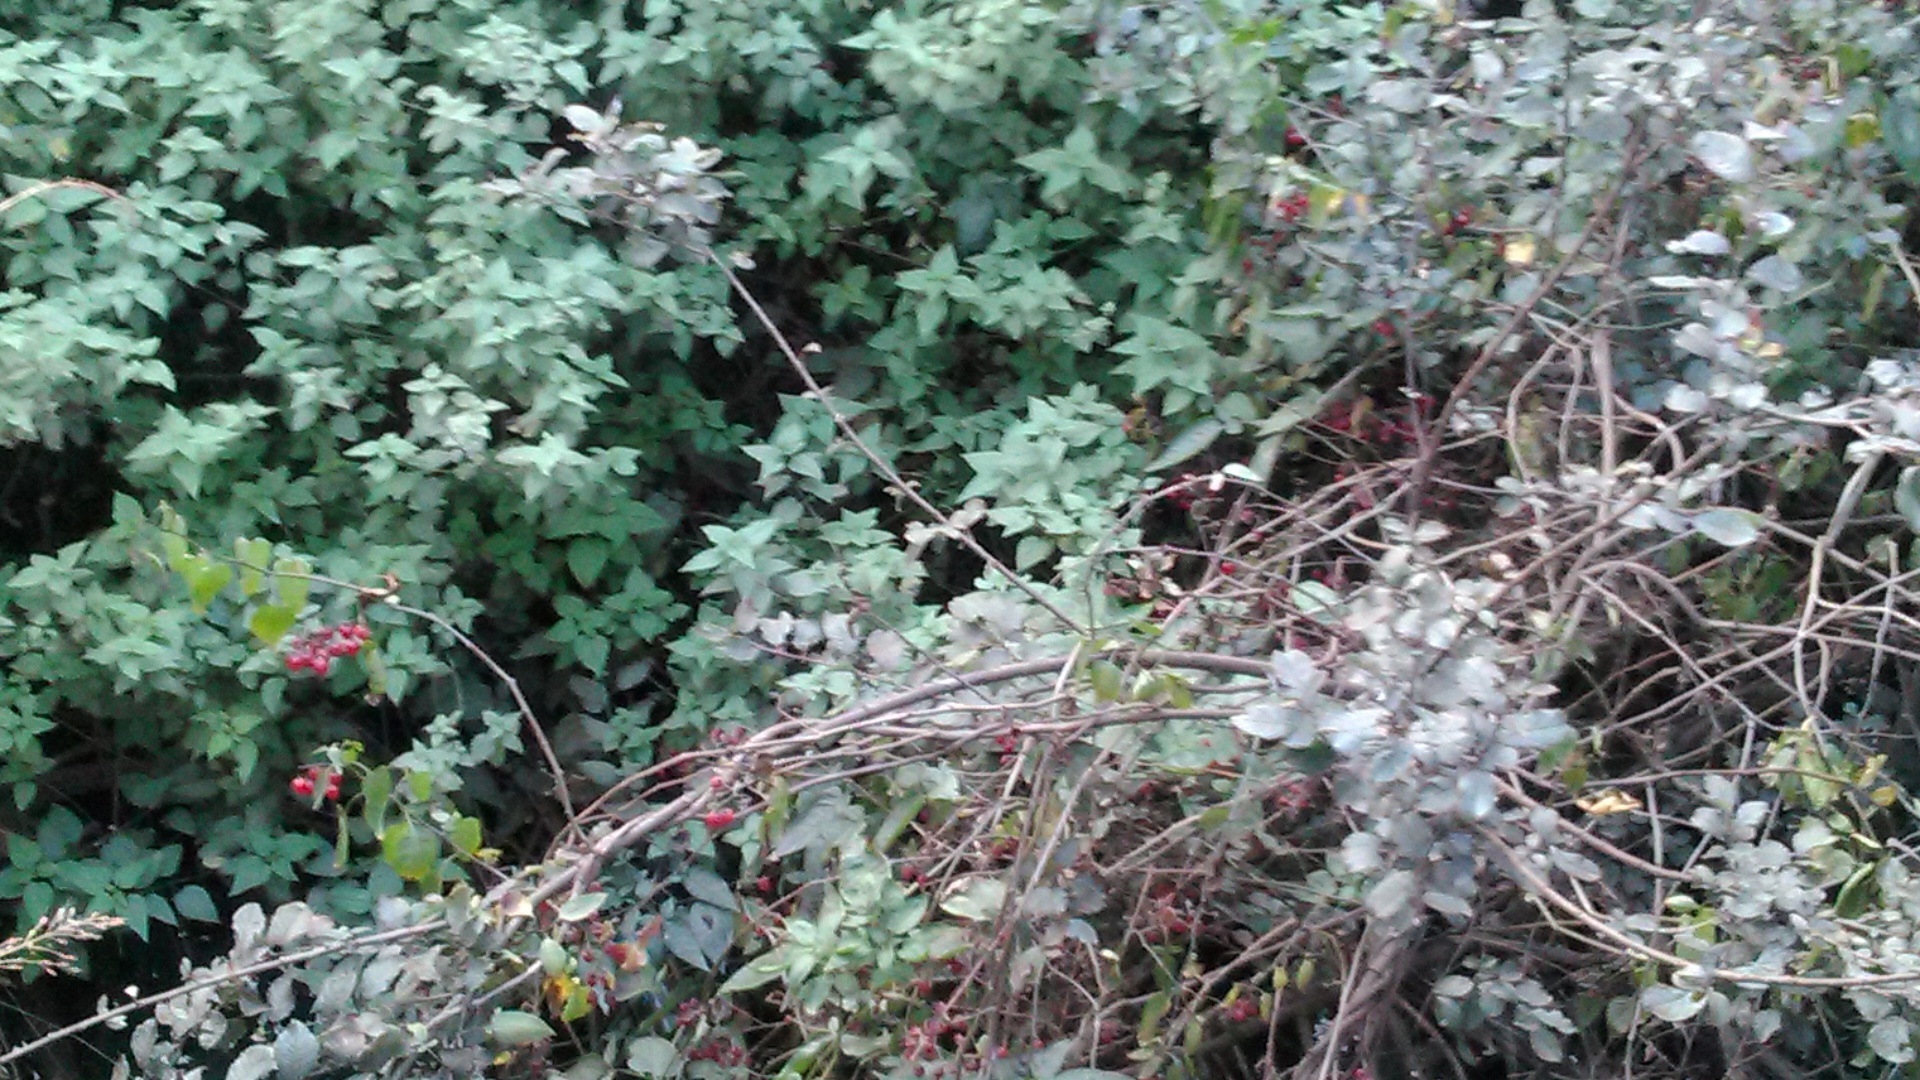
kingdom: Plantae
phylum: Tracheophyta
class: Magnoliopsida
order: Solanales
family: Solanaceae
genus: Solanum
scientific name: Solanum dulcamara
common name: Climbing nightshade
